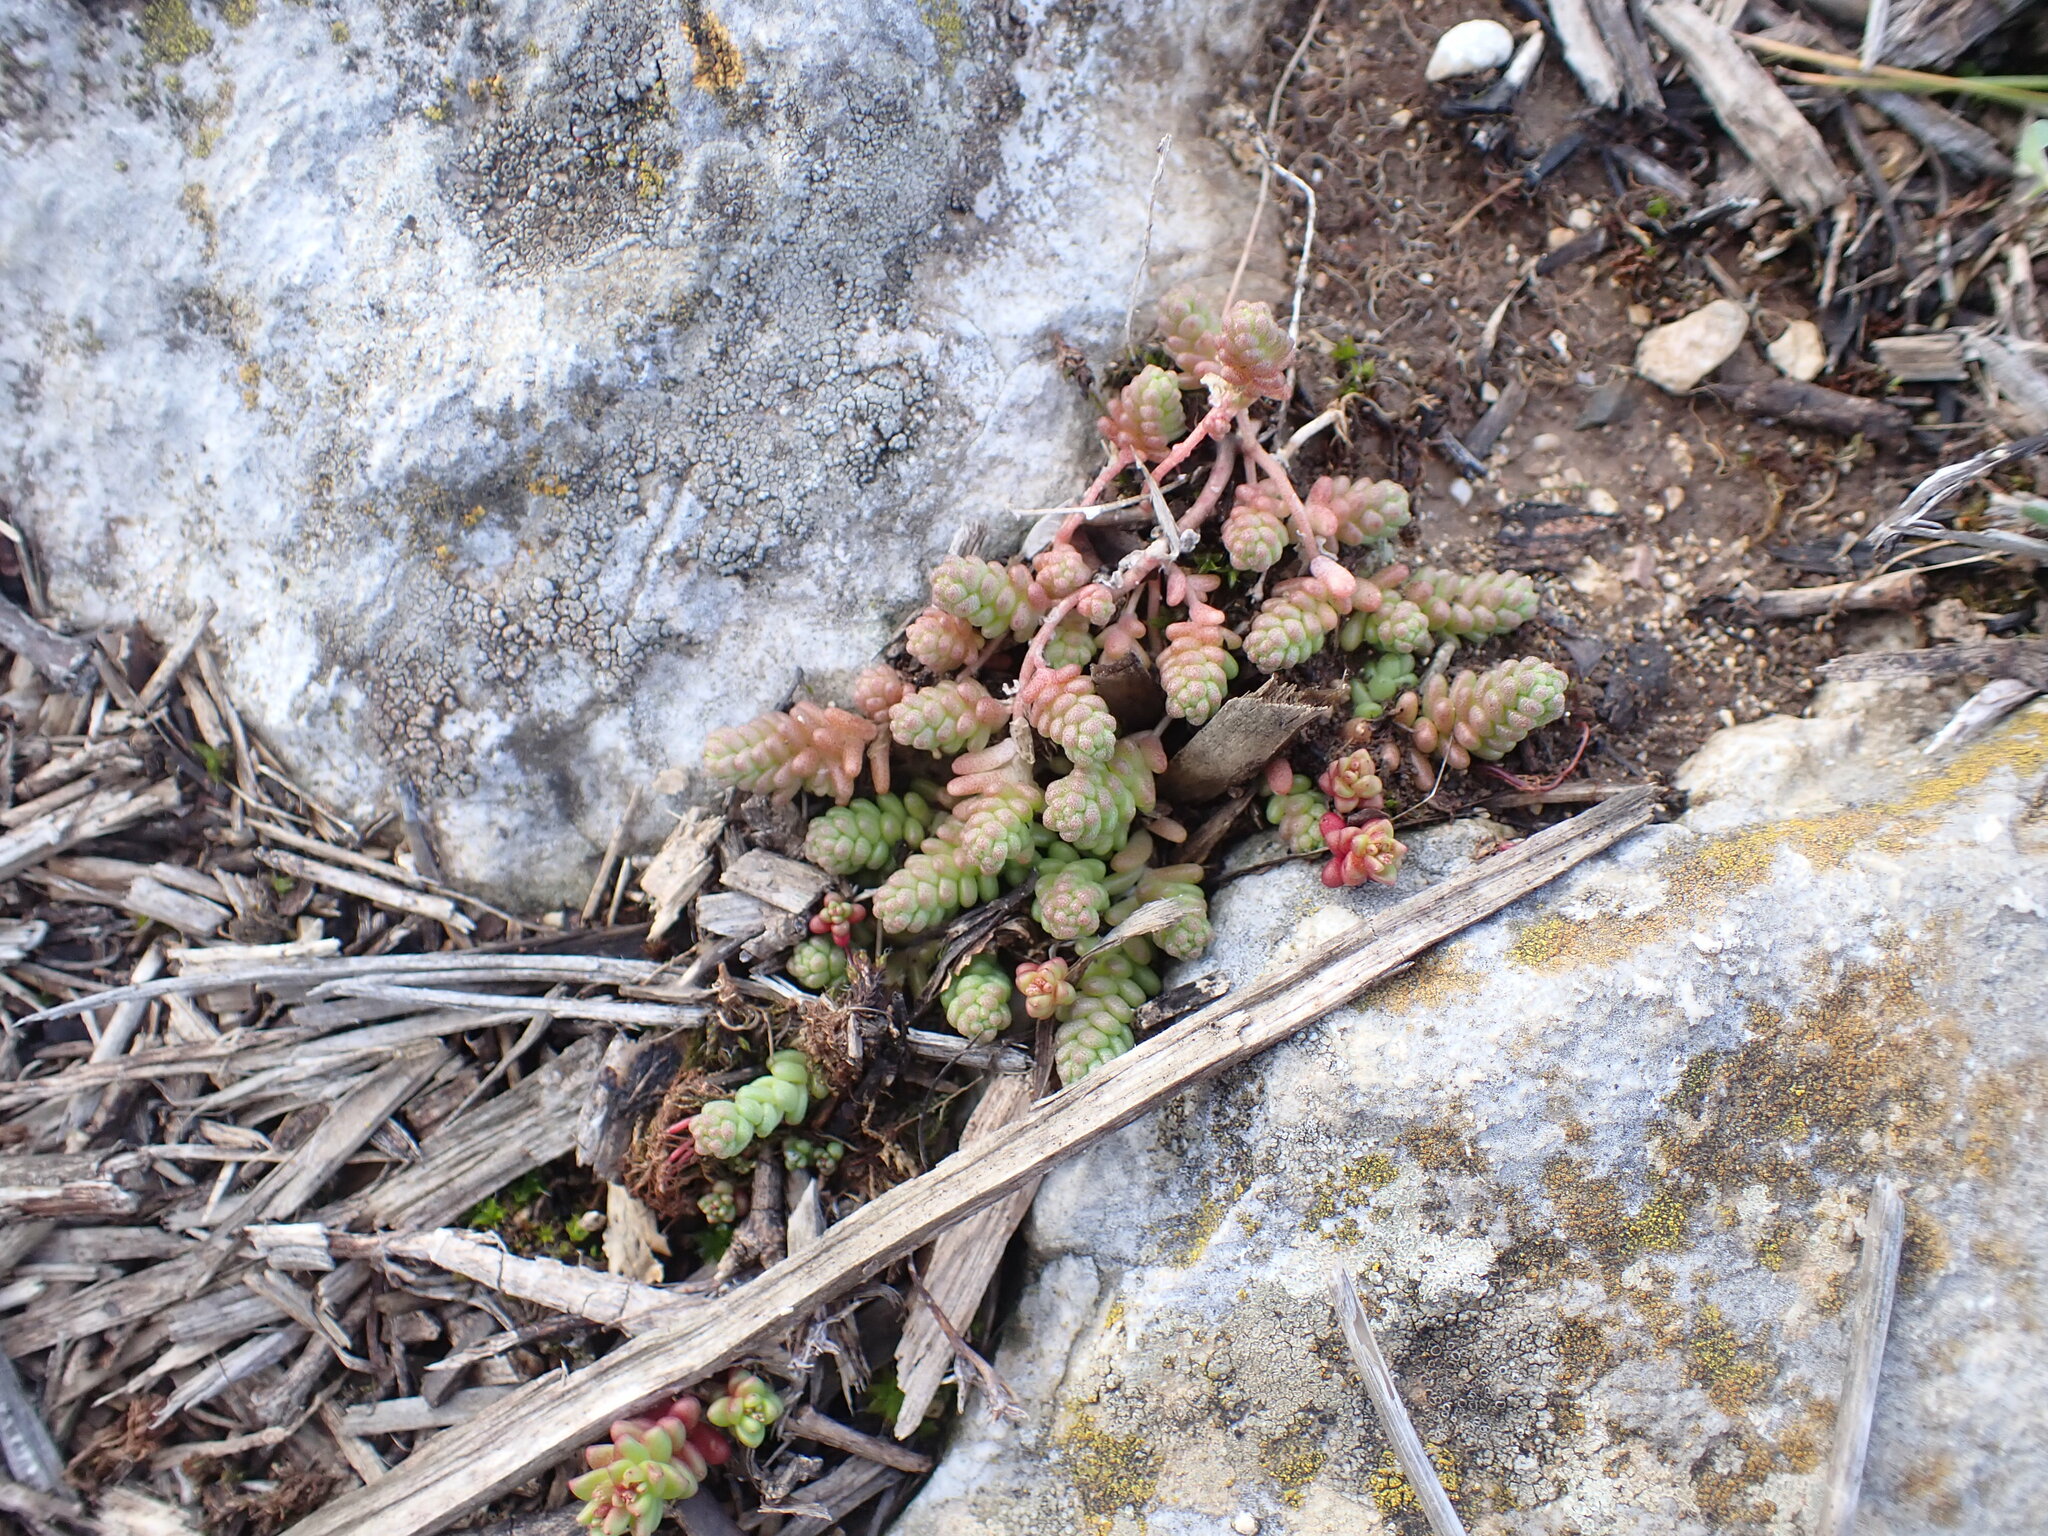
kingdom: Plantae
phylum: Tracheophyta
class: Magnoliopsida
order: Saxifragales
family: Crassulaceae
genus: Sedum
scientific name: Sedum acre
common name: Biting stonecrop
